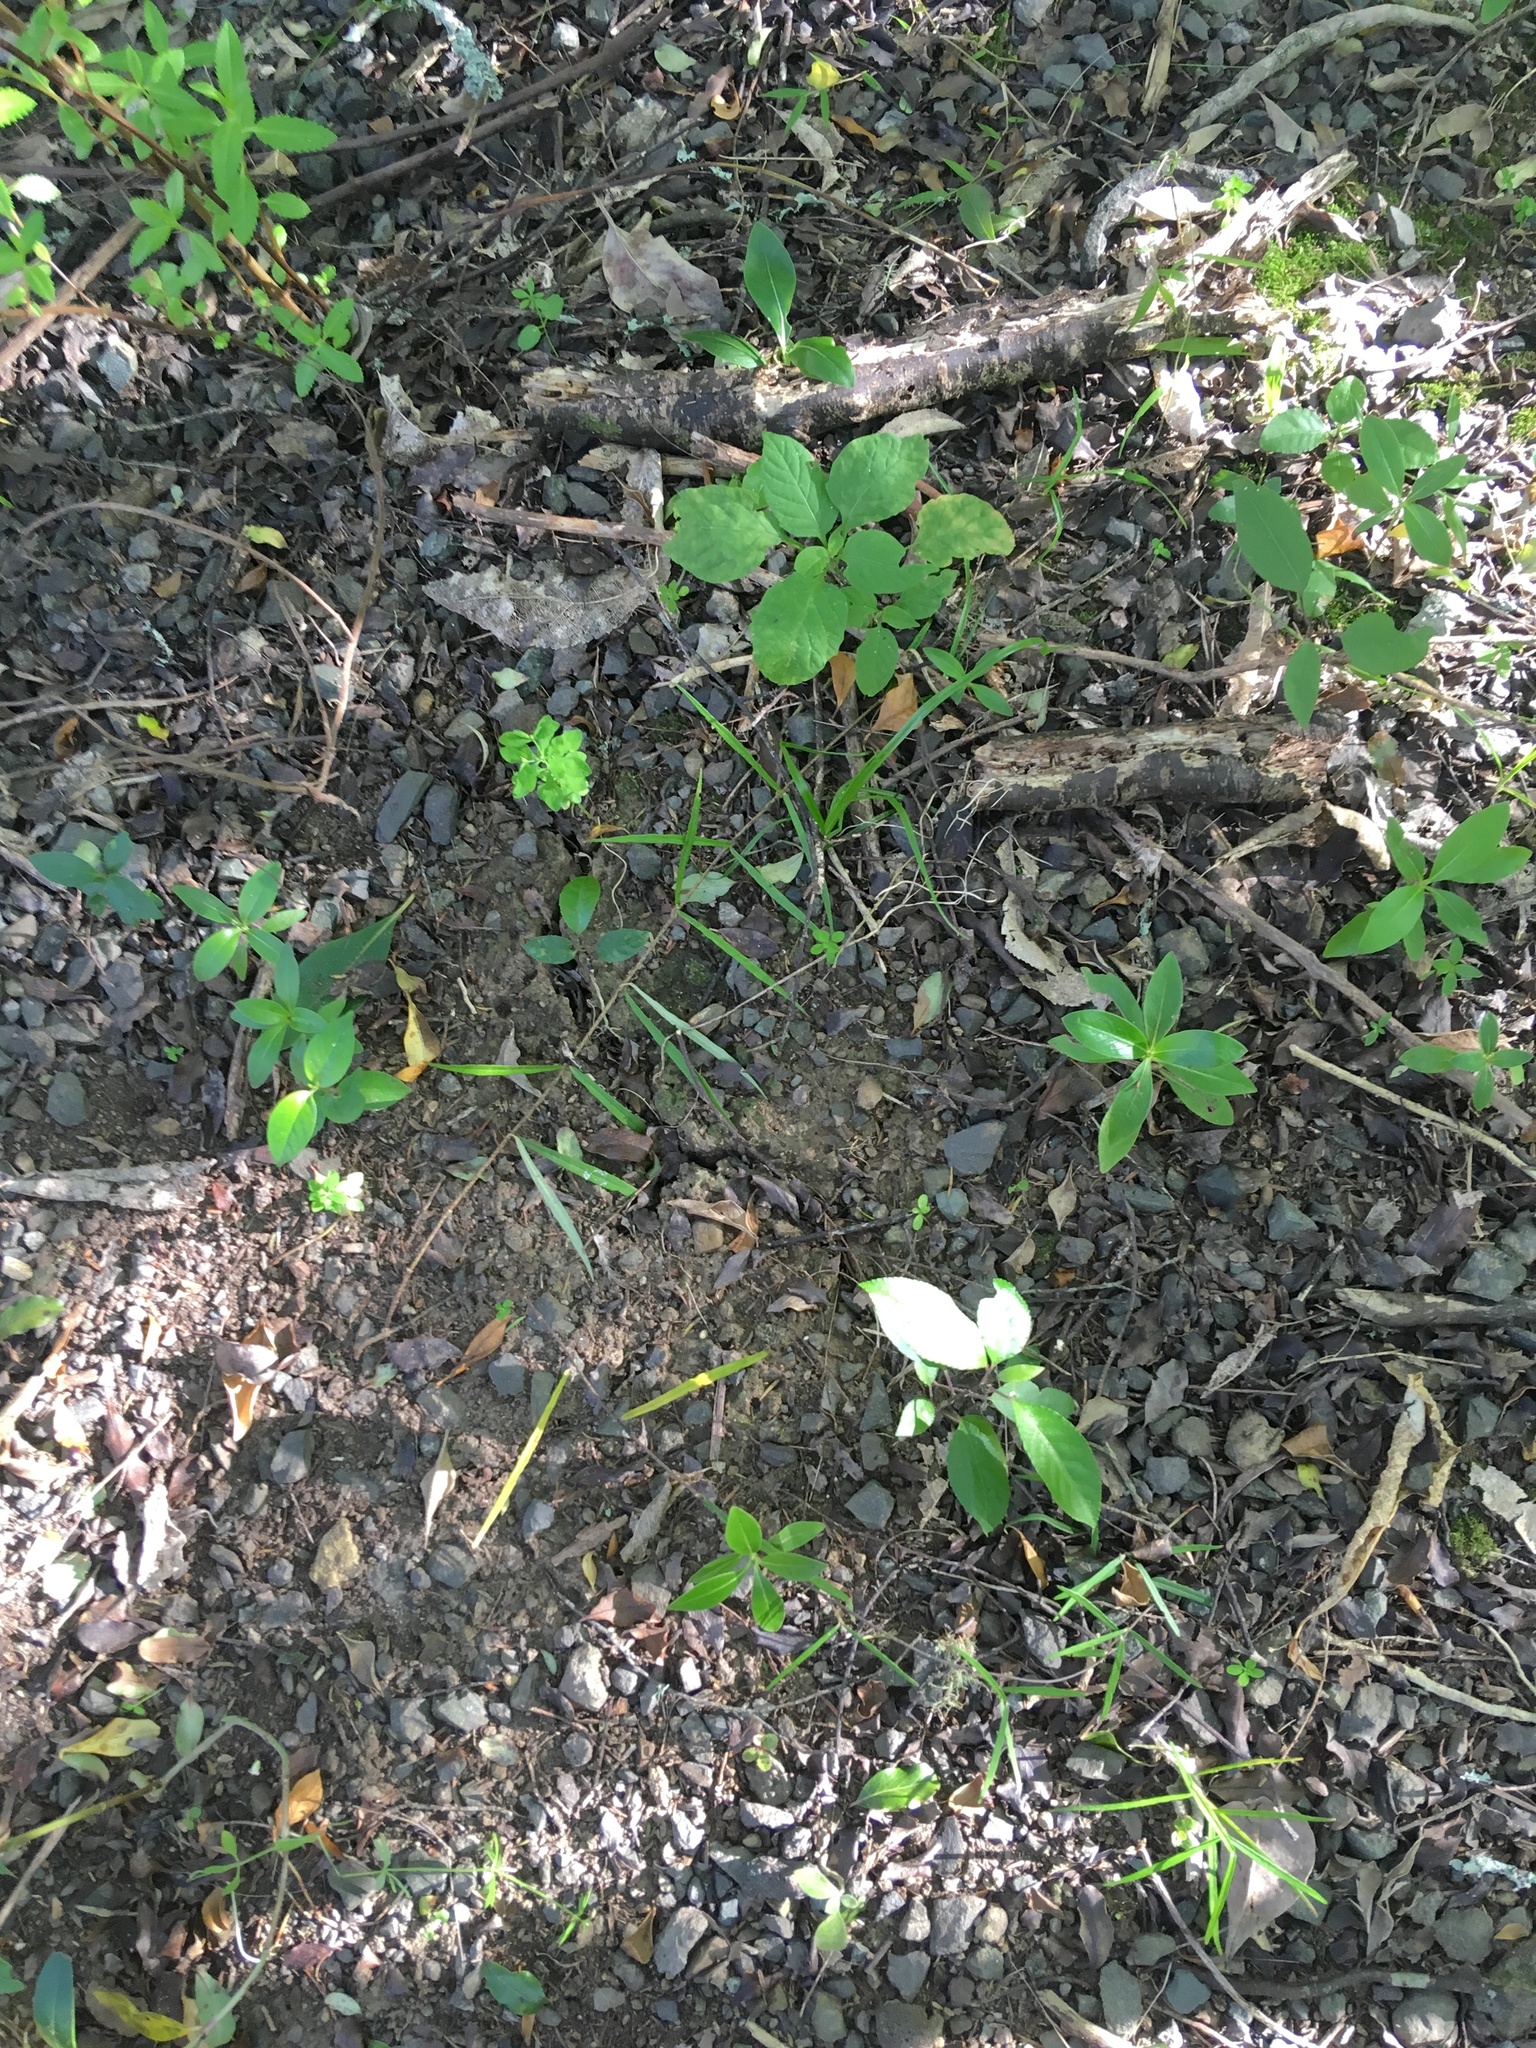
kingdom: Plantae
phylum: Tracheophyta
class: Magnoliopsida
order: Lamiales
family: Oleaceae
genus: Ligustrum
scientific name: Ligustrum lucidum
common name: Glossy privet
